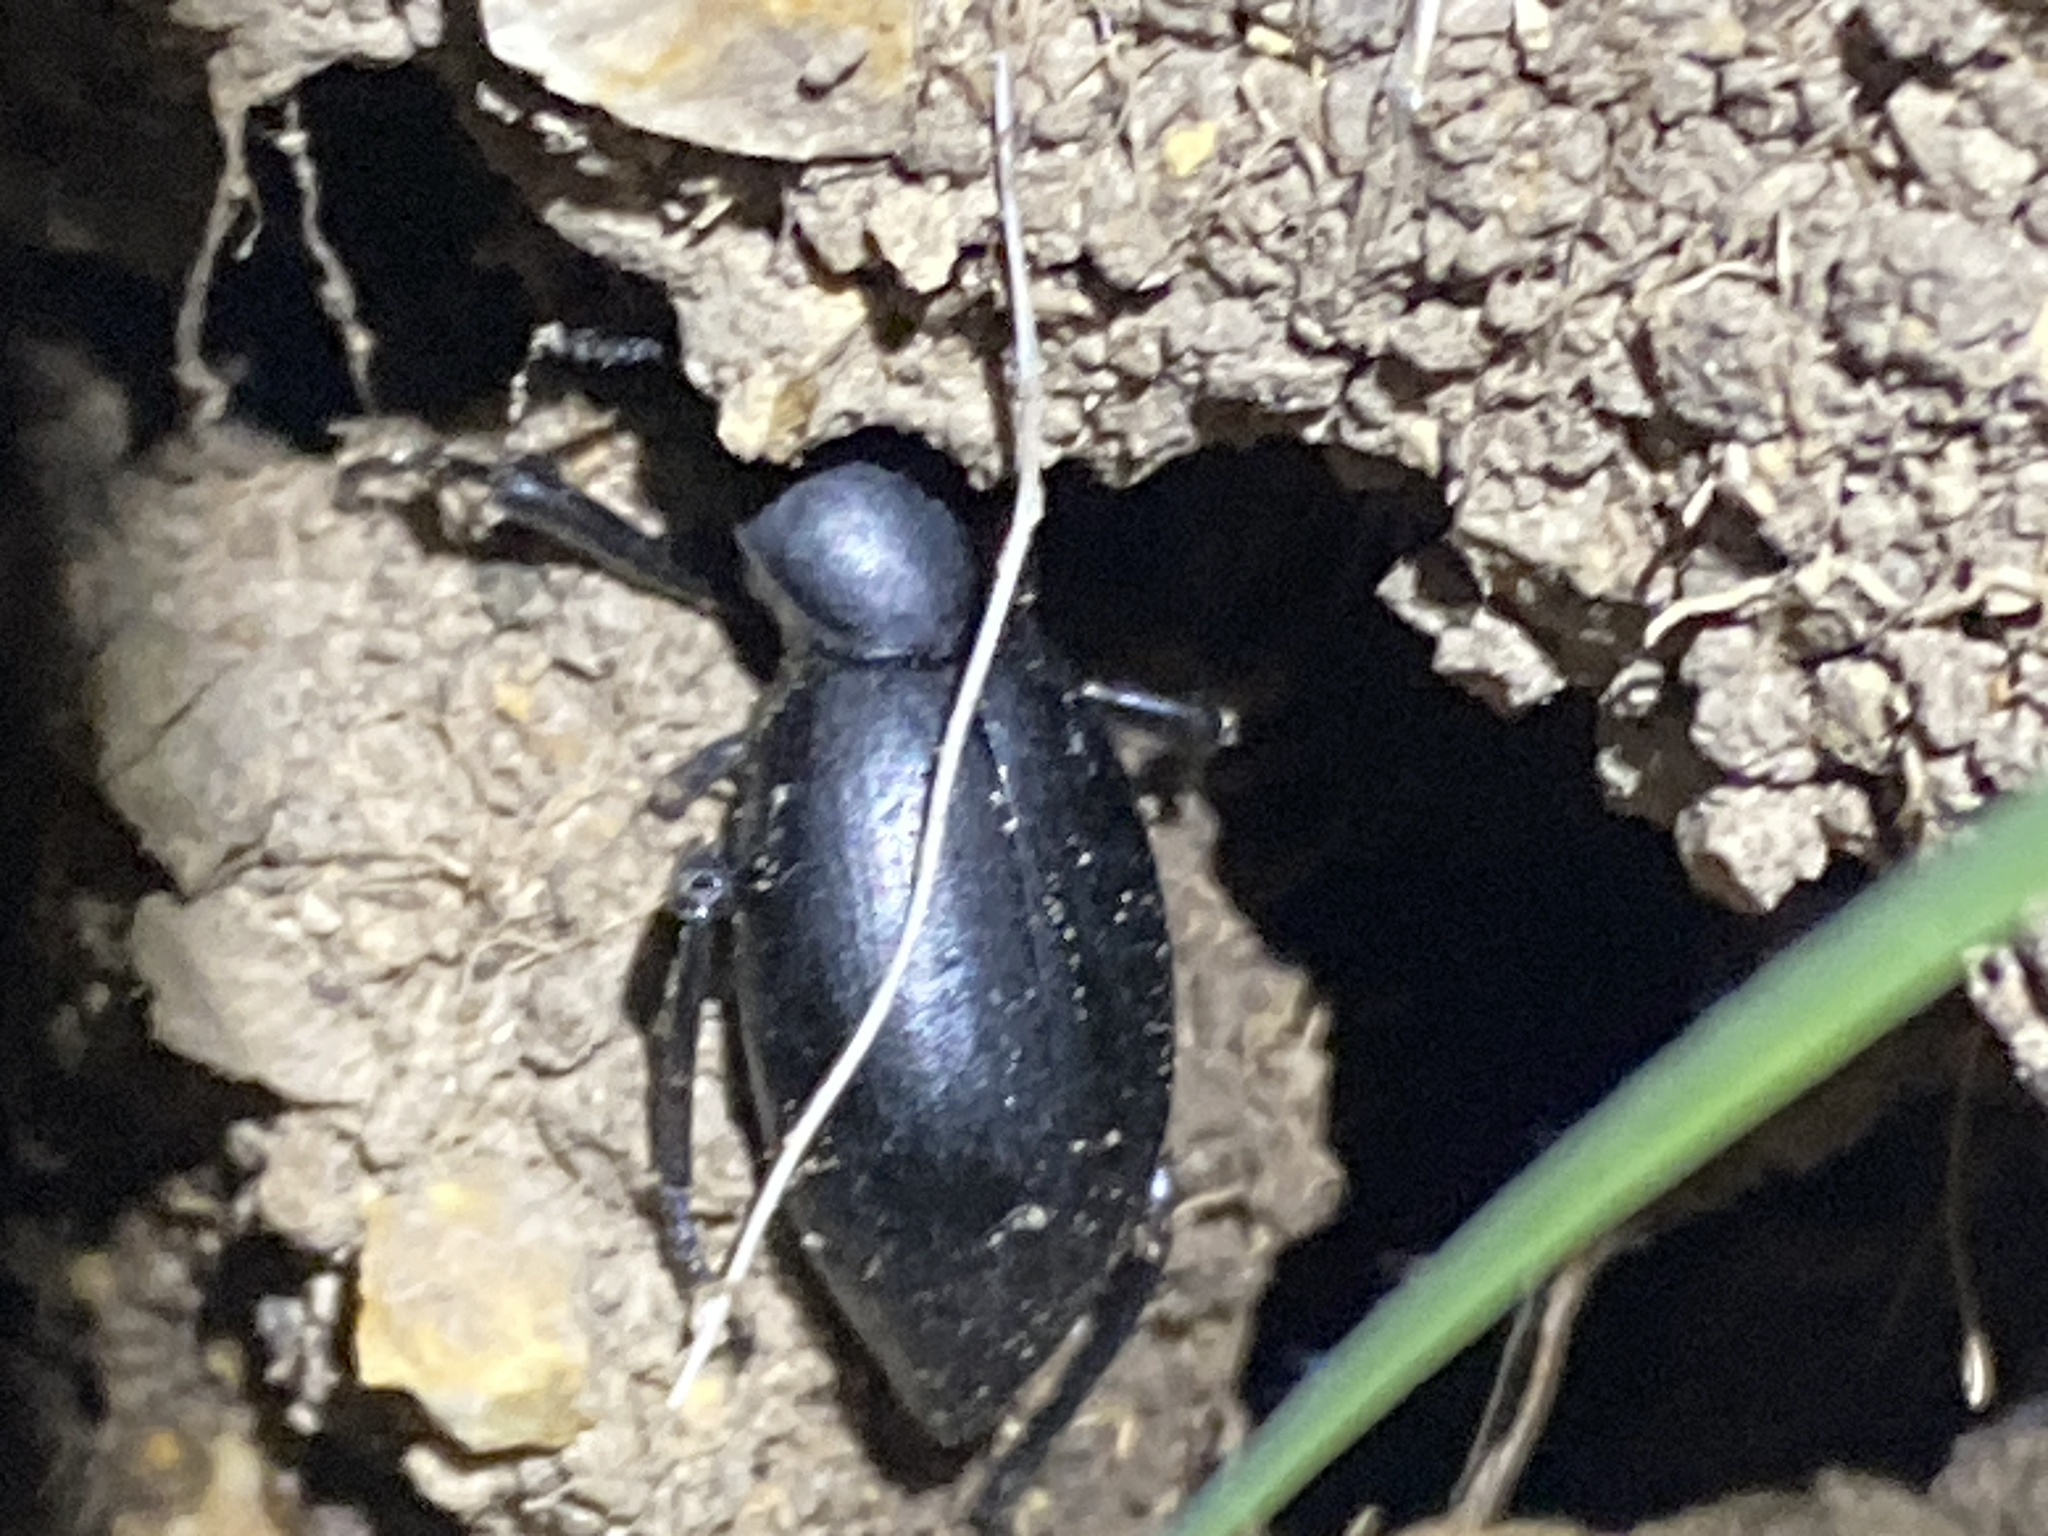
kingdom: Animalia
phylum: Arthropoda
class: Insecta
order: Coleoptera
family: Tenebrionidae
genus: Eleodes
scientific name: Eleodes dentipes
